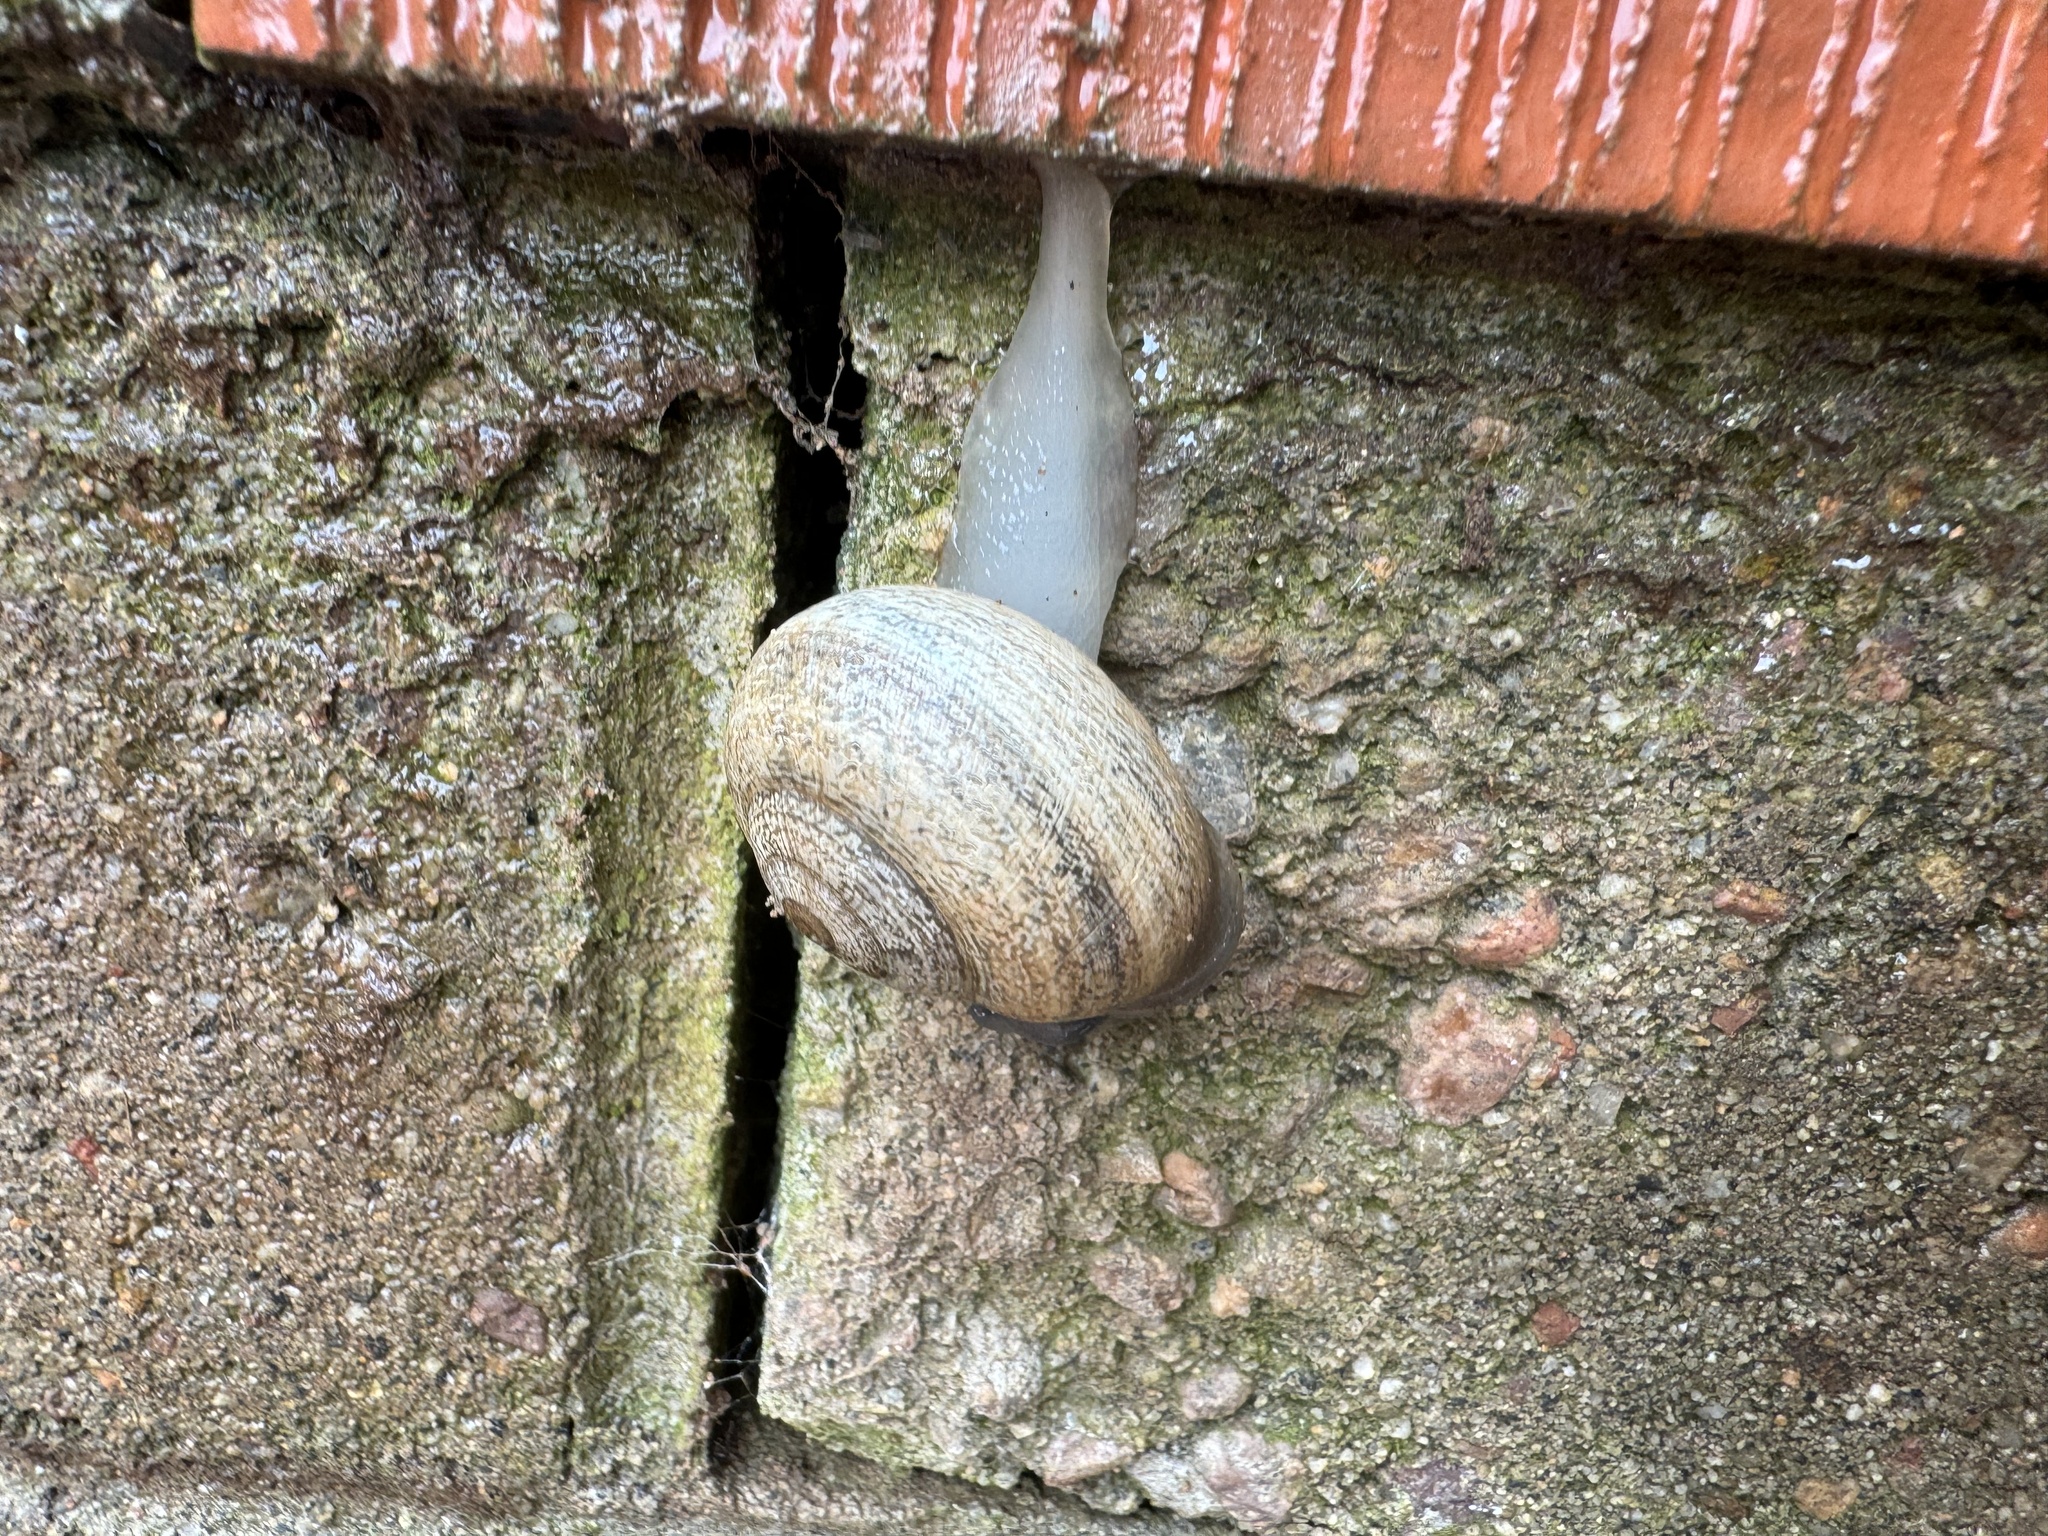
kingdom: Animalia
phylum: Mollusca
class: Gastropoda
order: Stylommatophora
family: Helicidae
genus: Otala
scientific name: Otala lactea
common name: Milk snail
